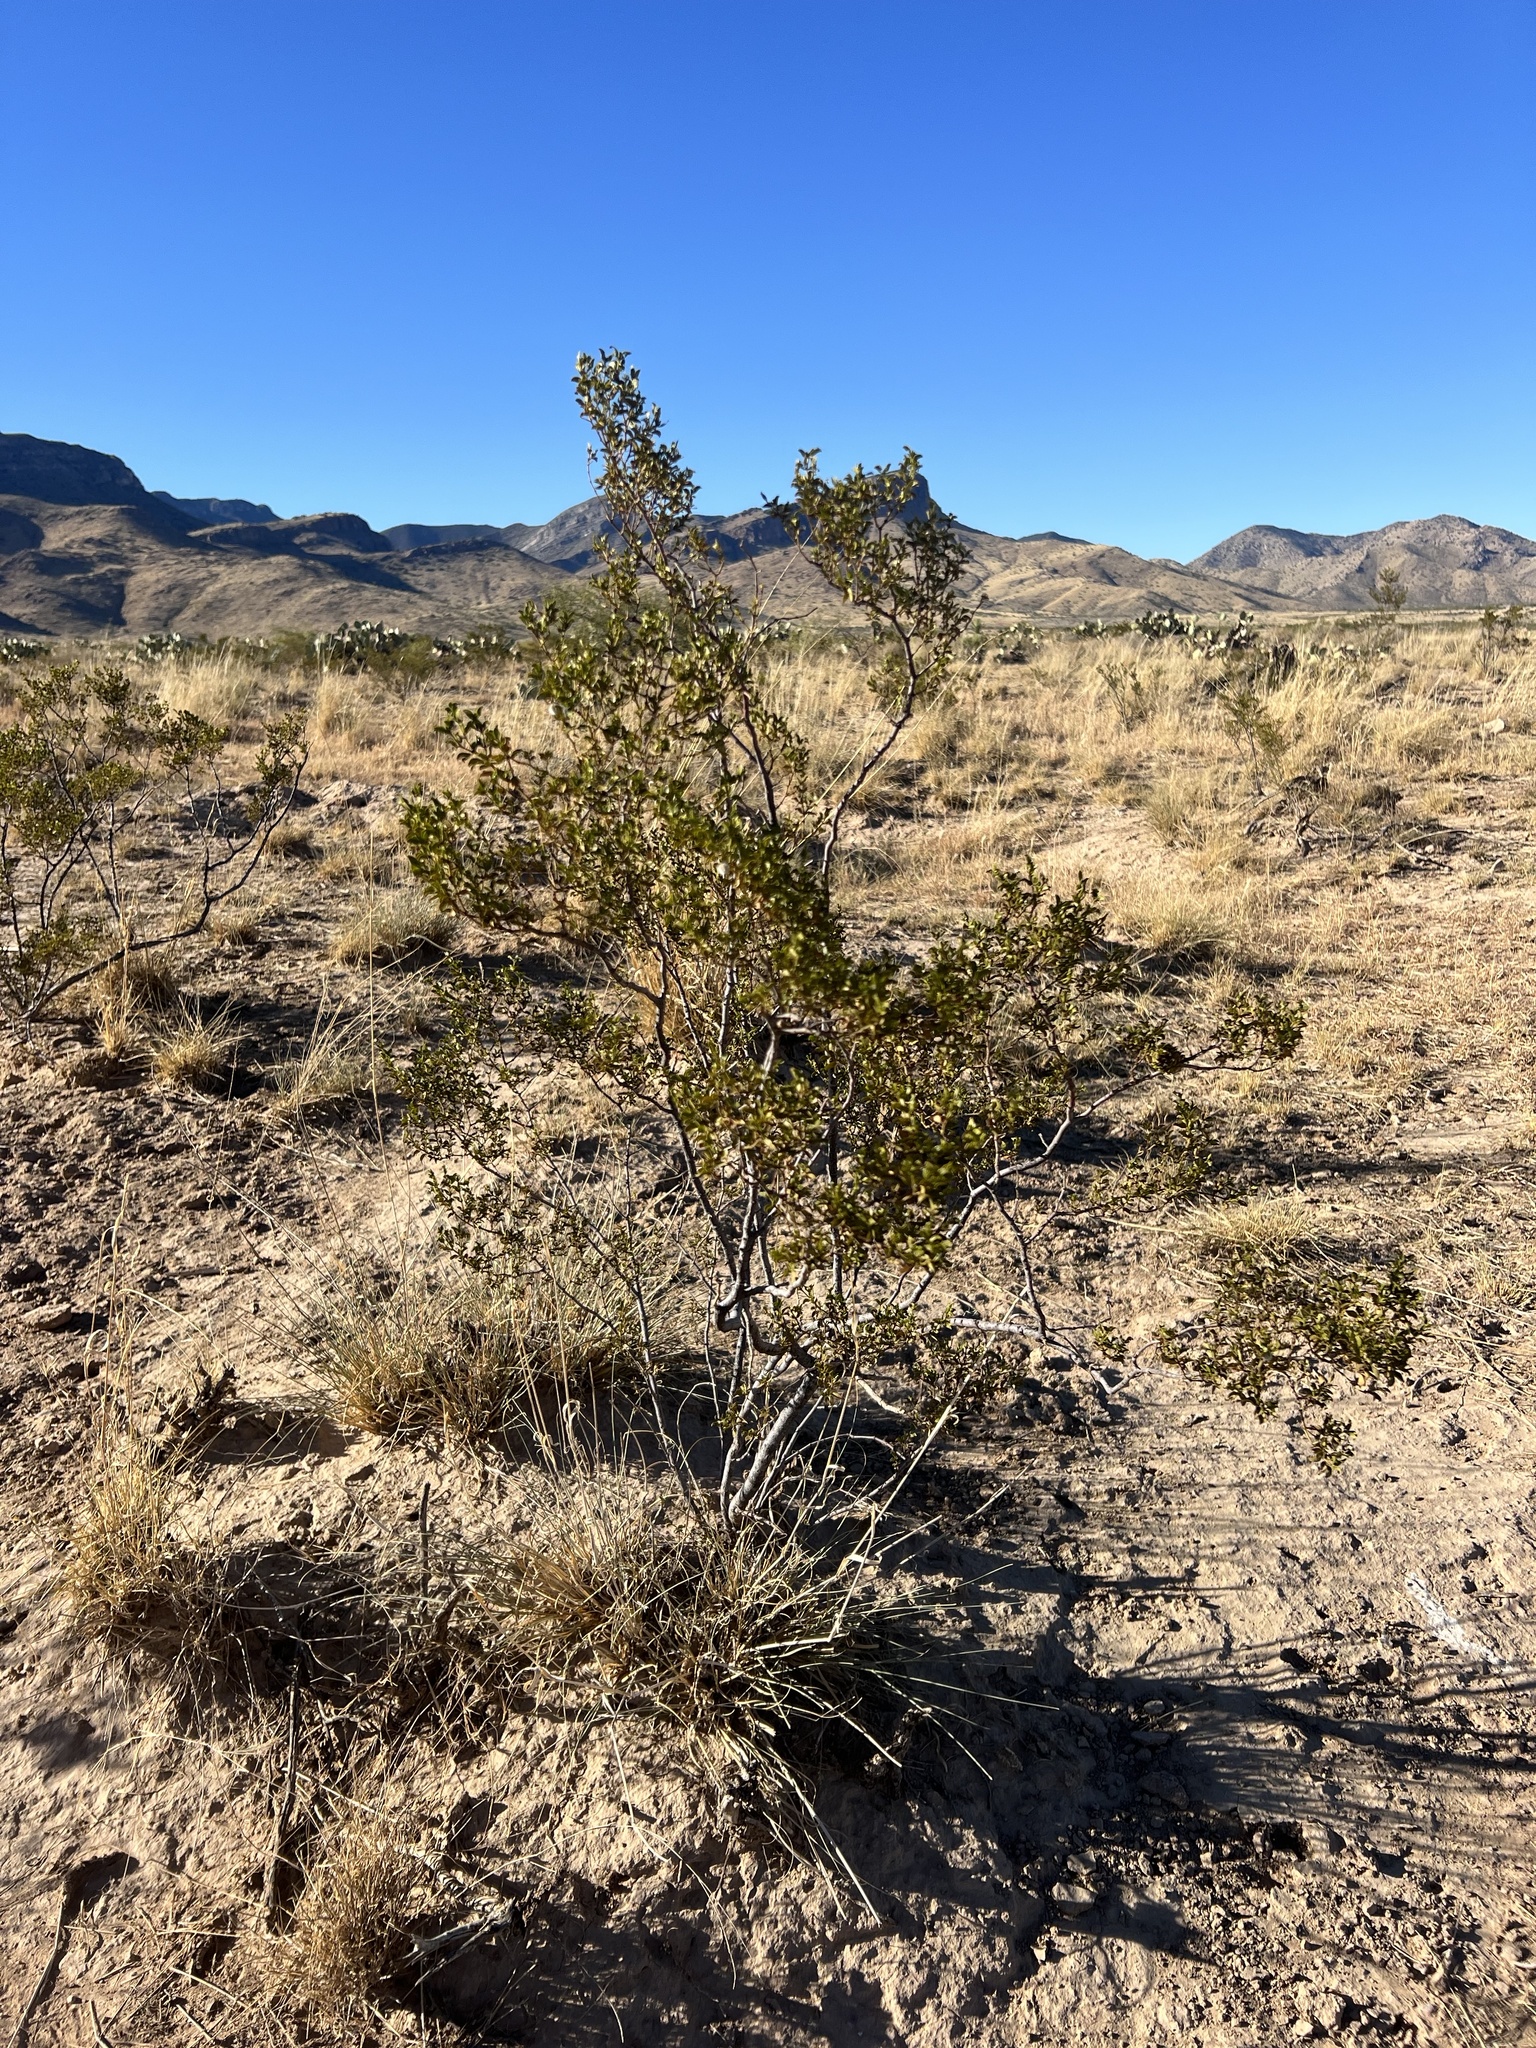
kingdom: Plantae
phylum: Tracheophyta
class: Magnoliopsida
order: Zygophyllales
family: Zygophyllaceae
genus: Larrea
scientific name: Larrea tridentata
